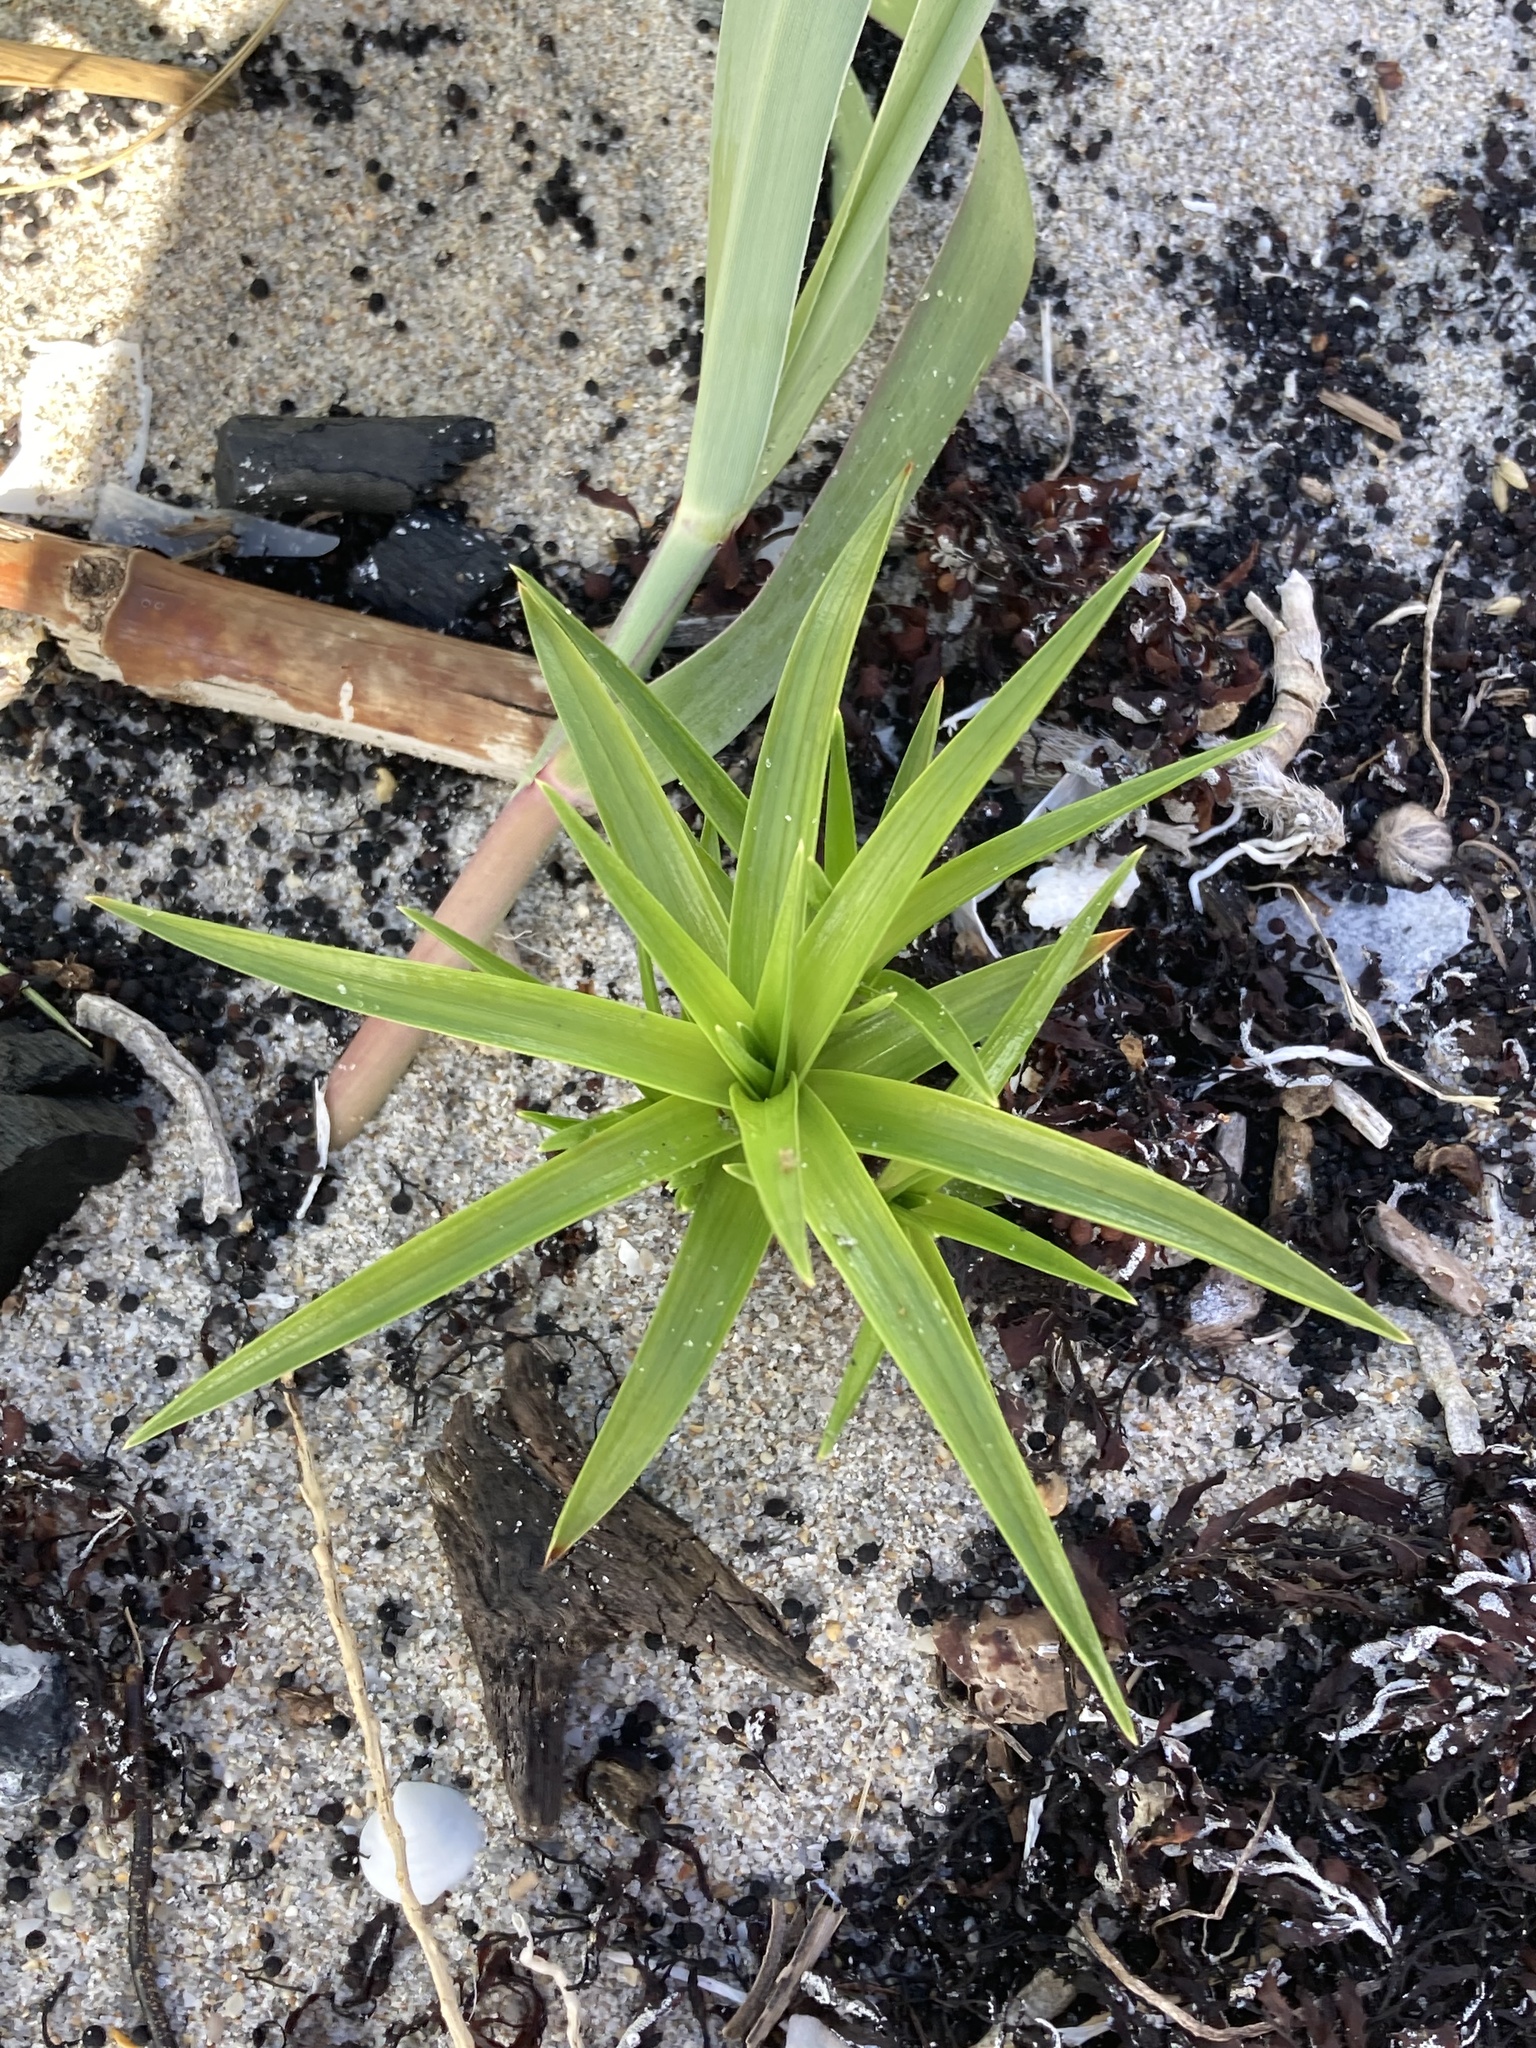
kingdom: Plantae
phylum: Tracheophyta
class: Liliopsida
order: Poales
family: Cyperaceae
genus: Cyperus
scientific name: Cyperus pedunculatus
